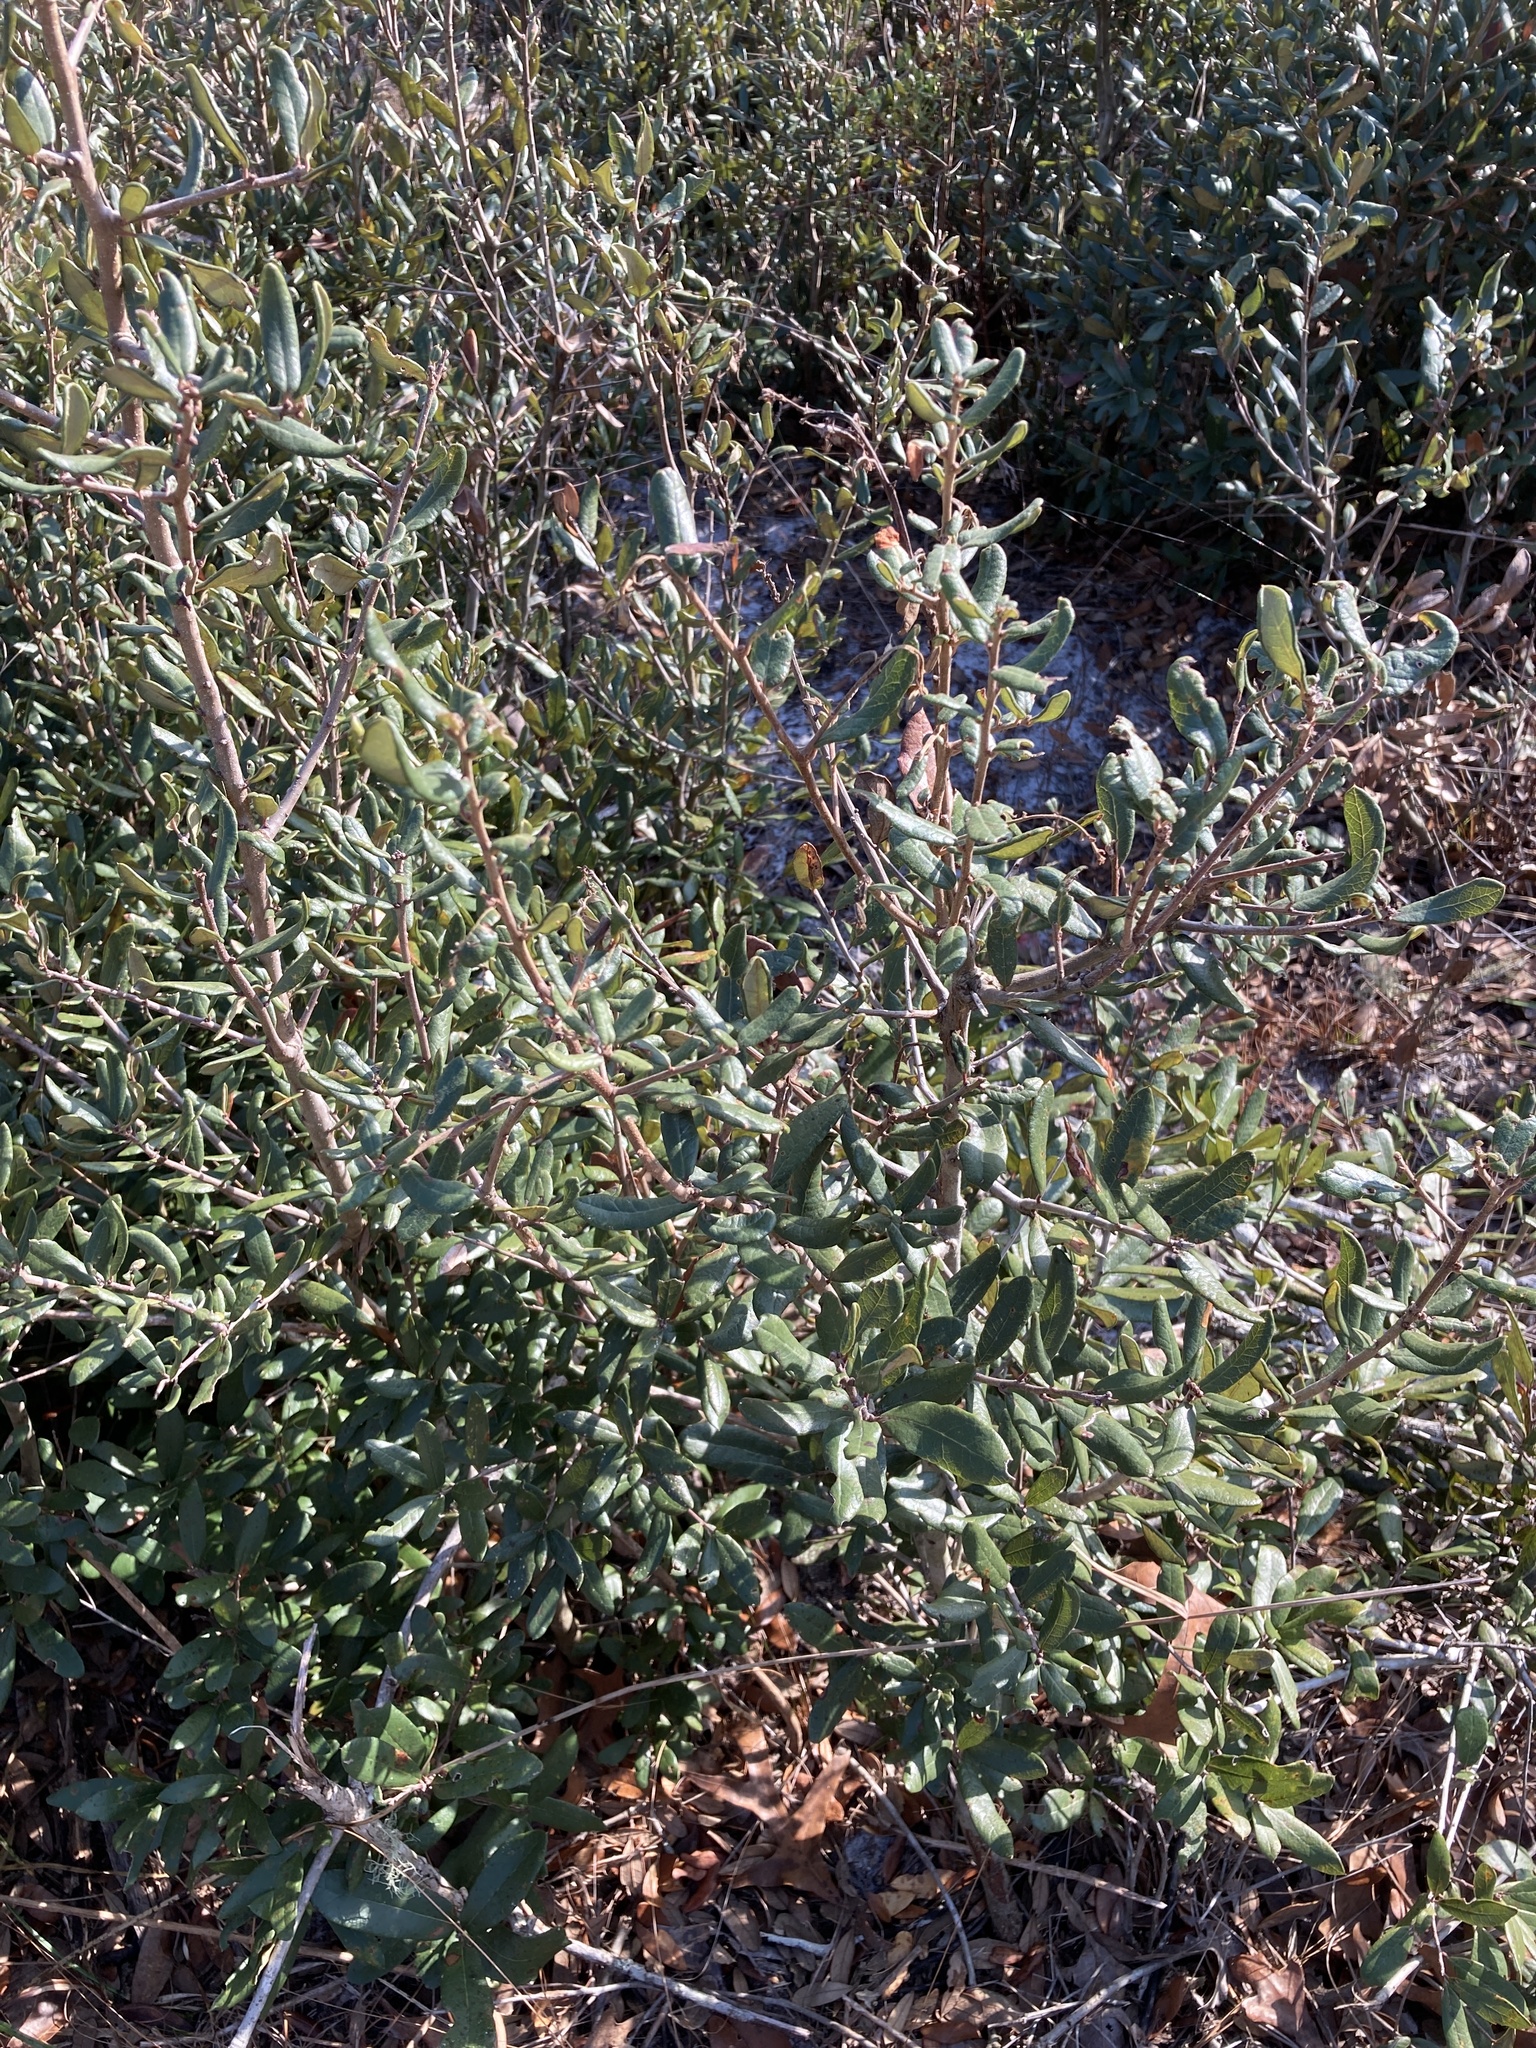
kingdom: Plantae
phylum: Tracheophyta
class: Magnoliopsida
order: Fagales
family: Fagaceae
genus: Quercus
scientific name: Quercus geminata
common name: Sand live oak
